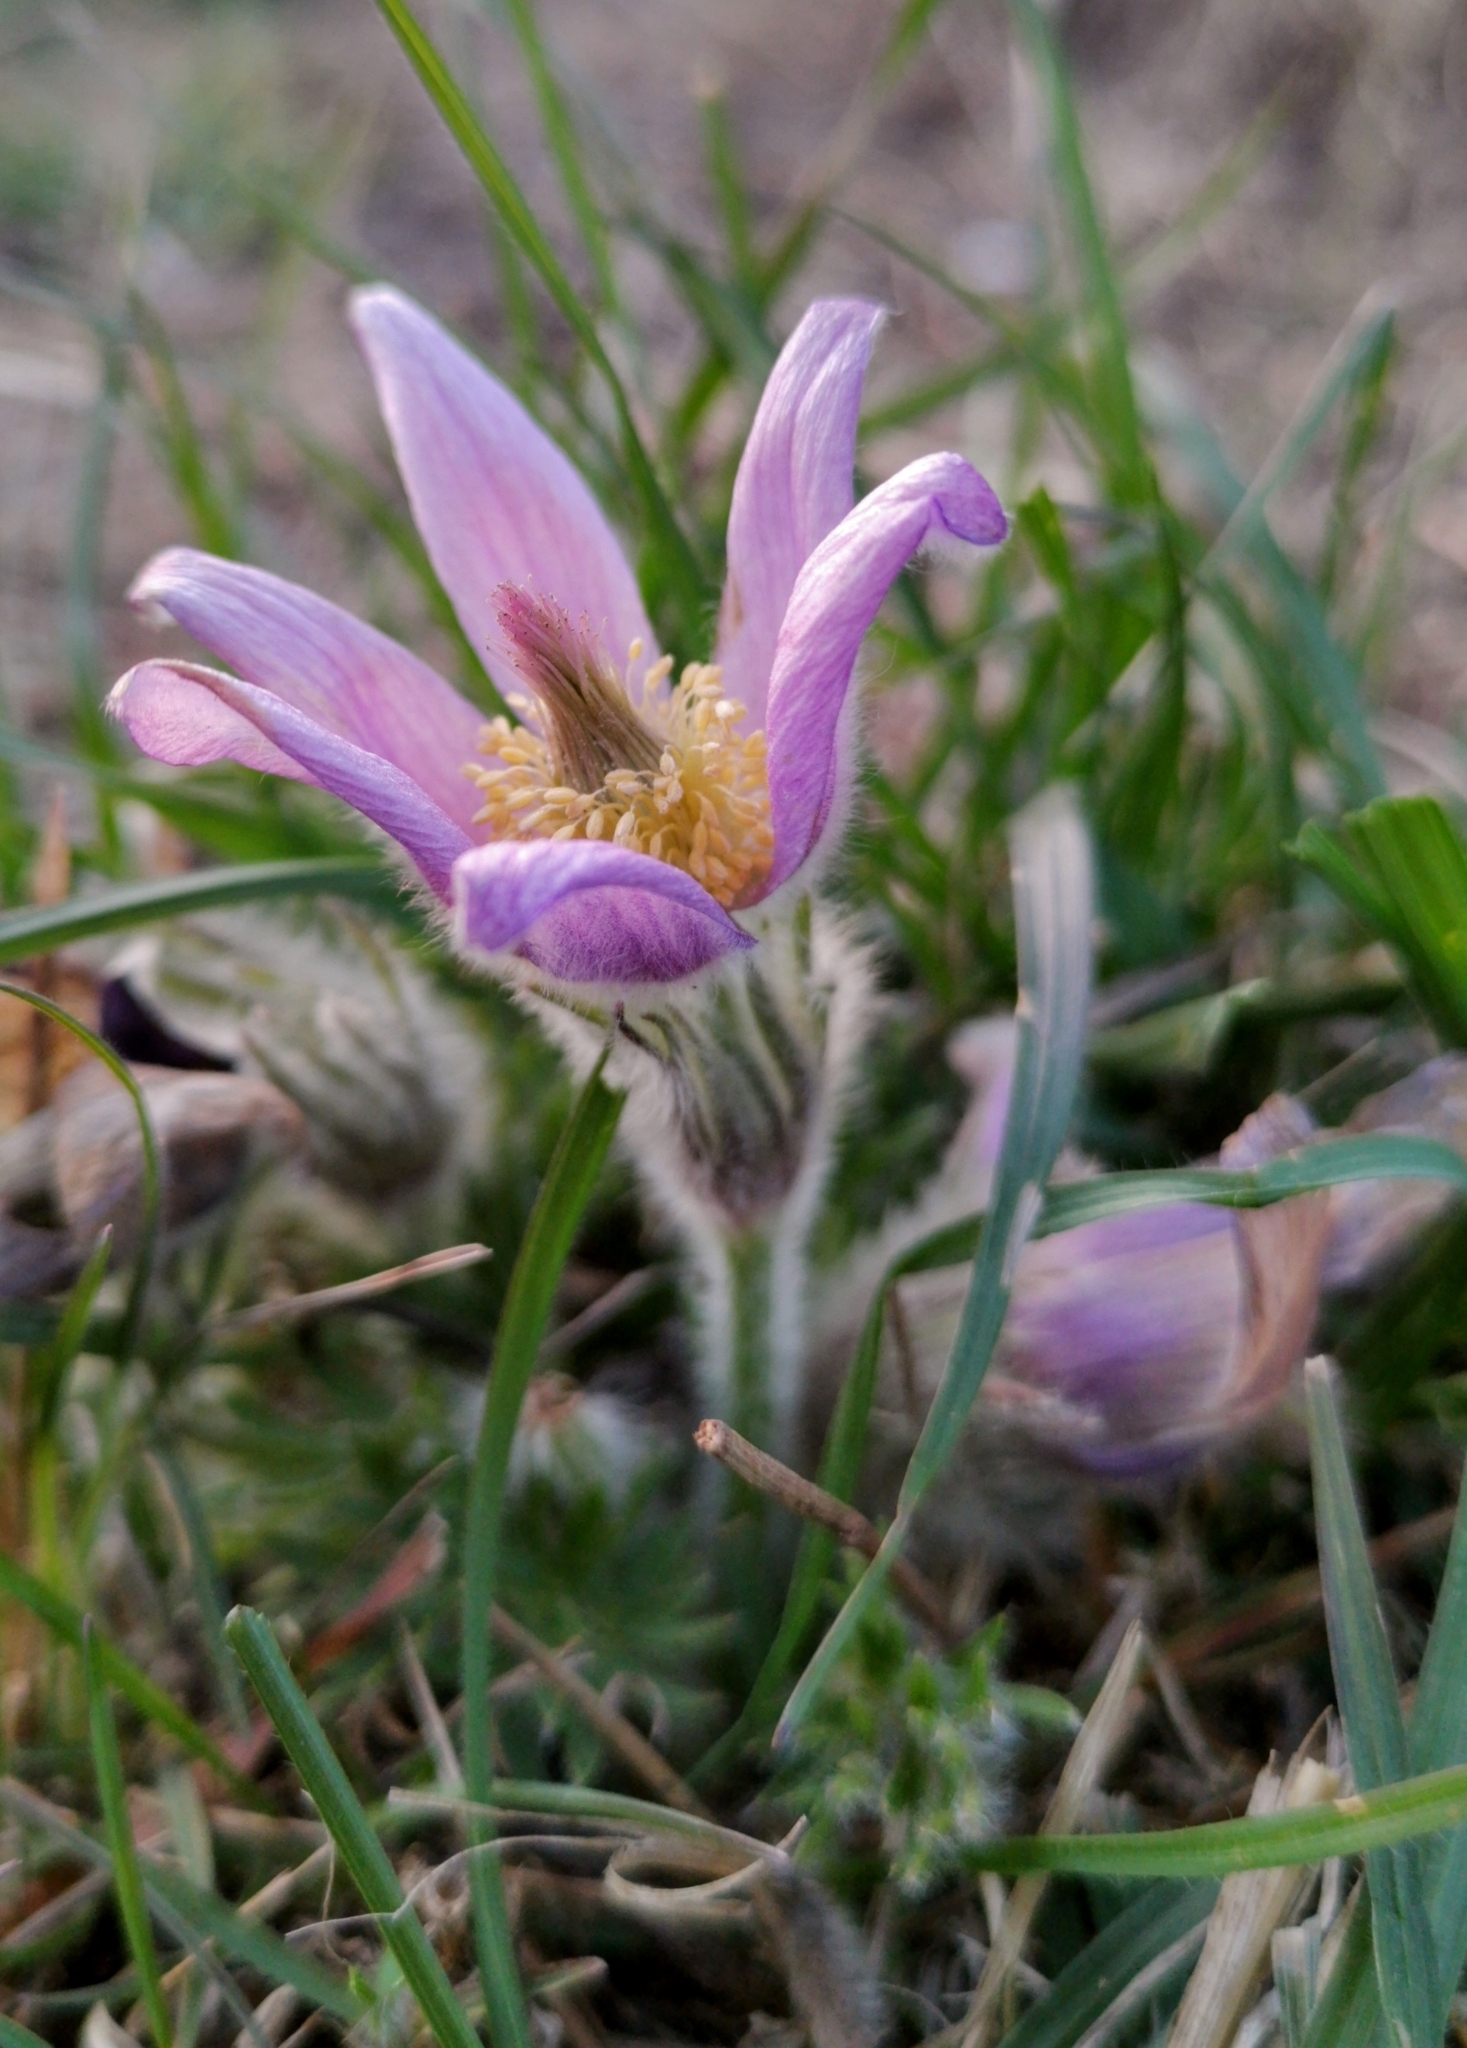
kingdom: Plantae
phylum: Tracheophyta
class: Magnoliopsida
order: Ranunculales
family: Ranunculaceae
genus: Pulsatilla
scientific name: Pulsatilla grandis
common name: Greater pasque flower
